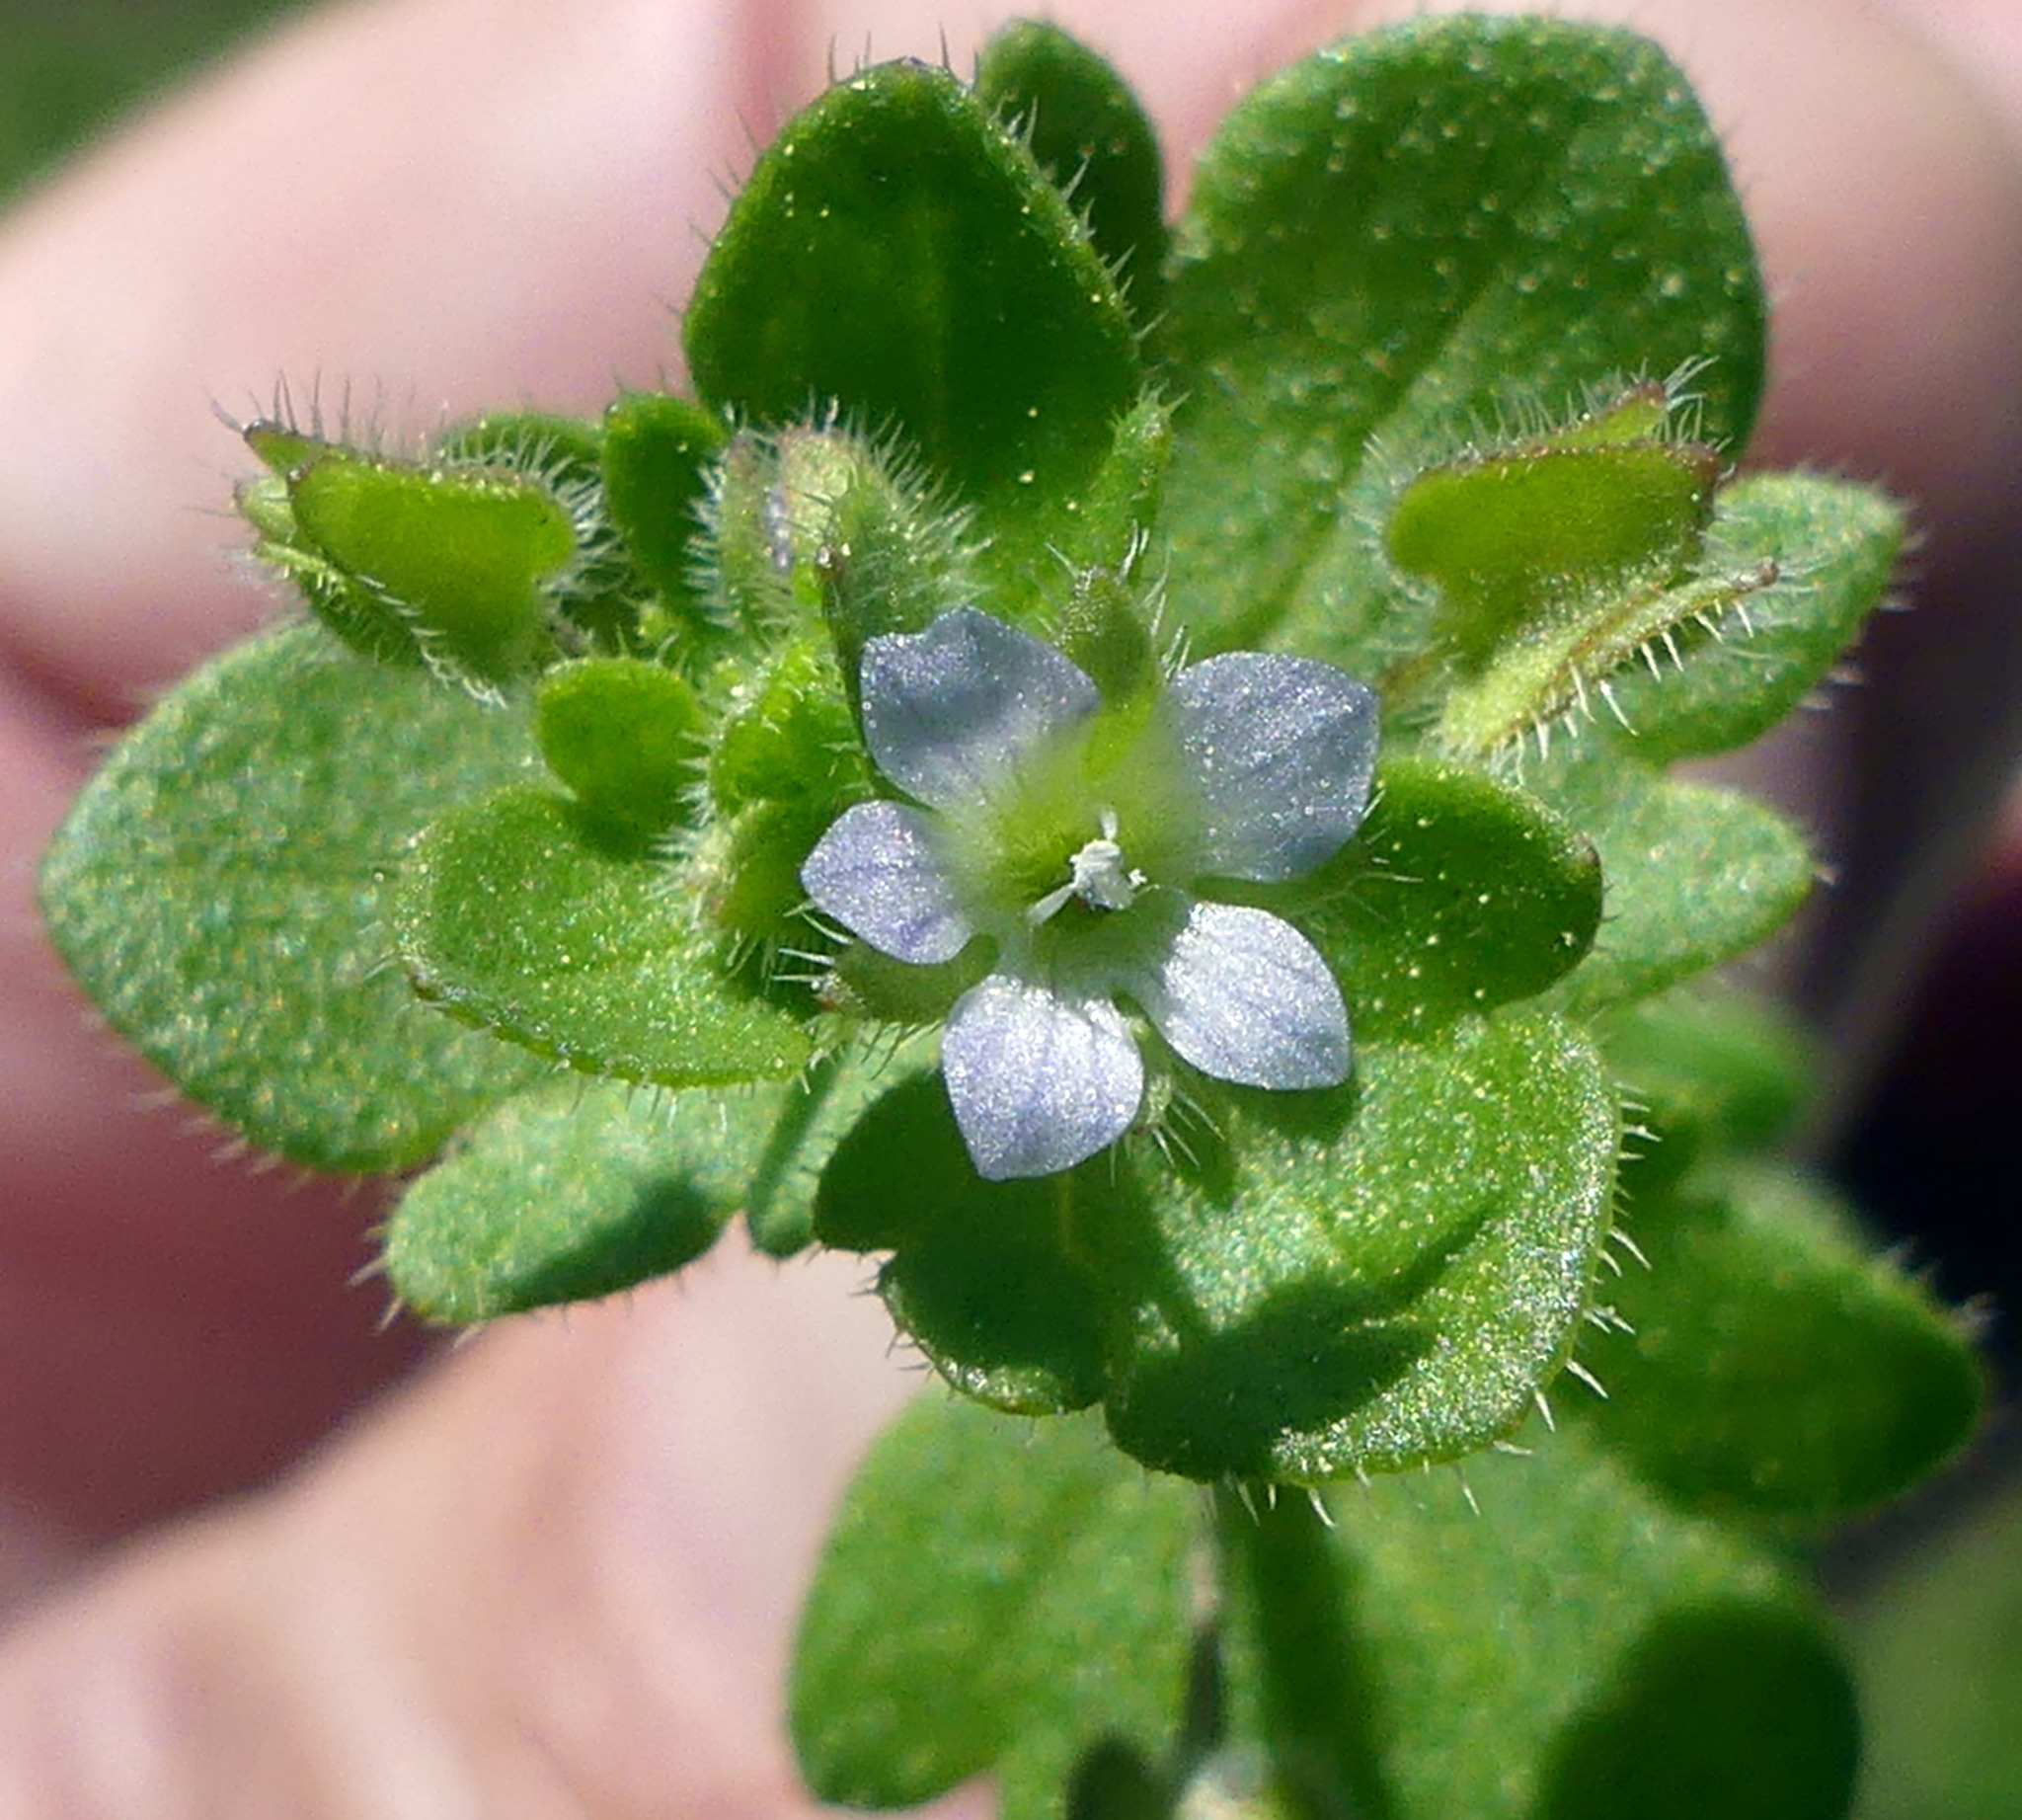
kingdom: Plantae
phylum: Tracheophyta
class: Magnoliopsida
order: Lamiales
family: Plantaginaceae
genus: Veronica
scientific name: Veronica hederifolia
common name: Ivy-leaved speedwell
